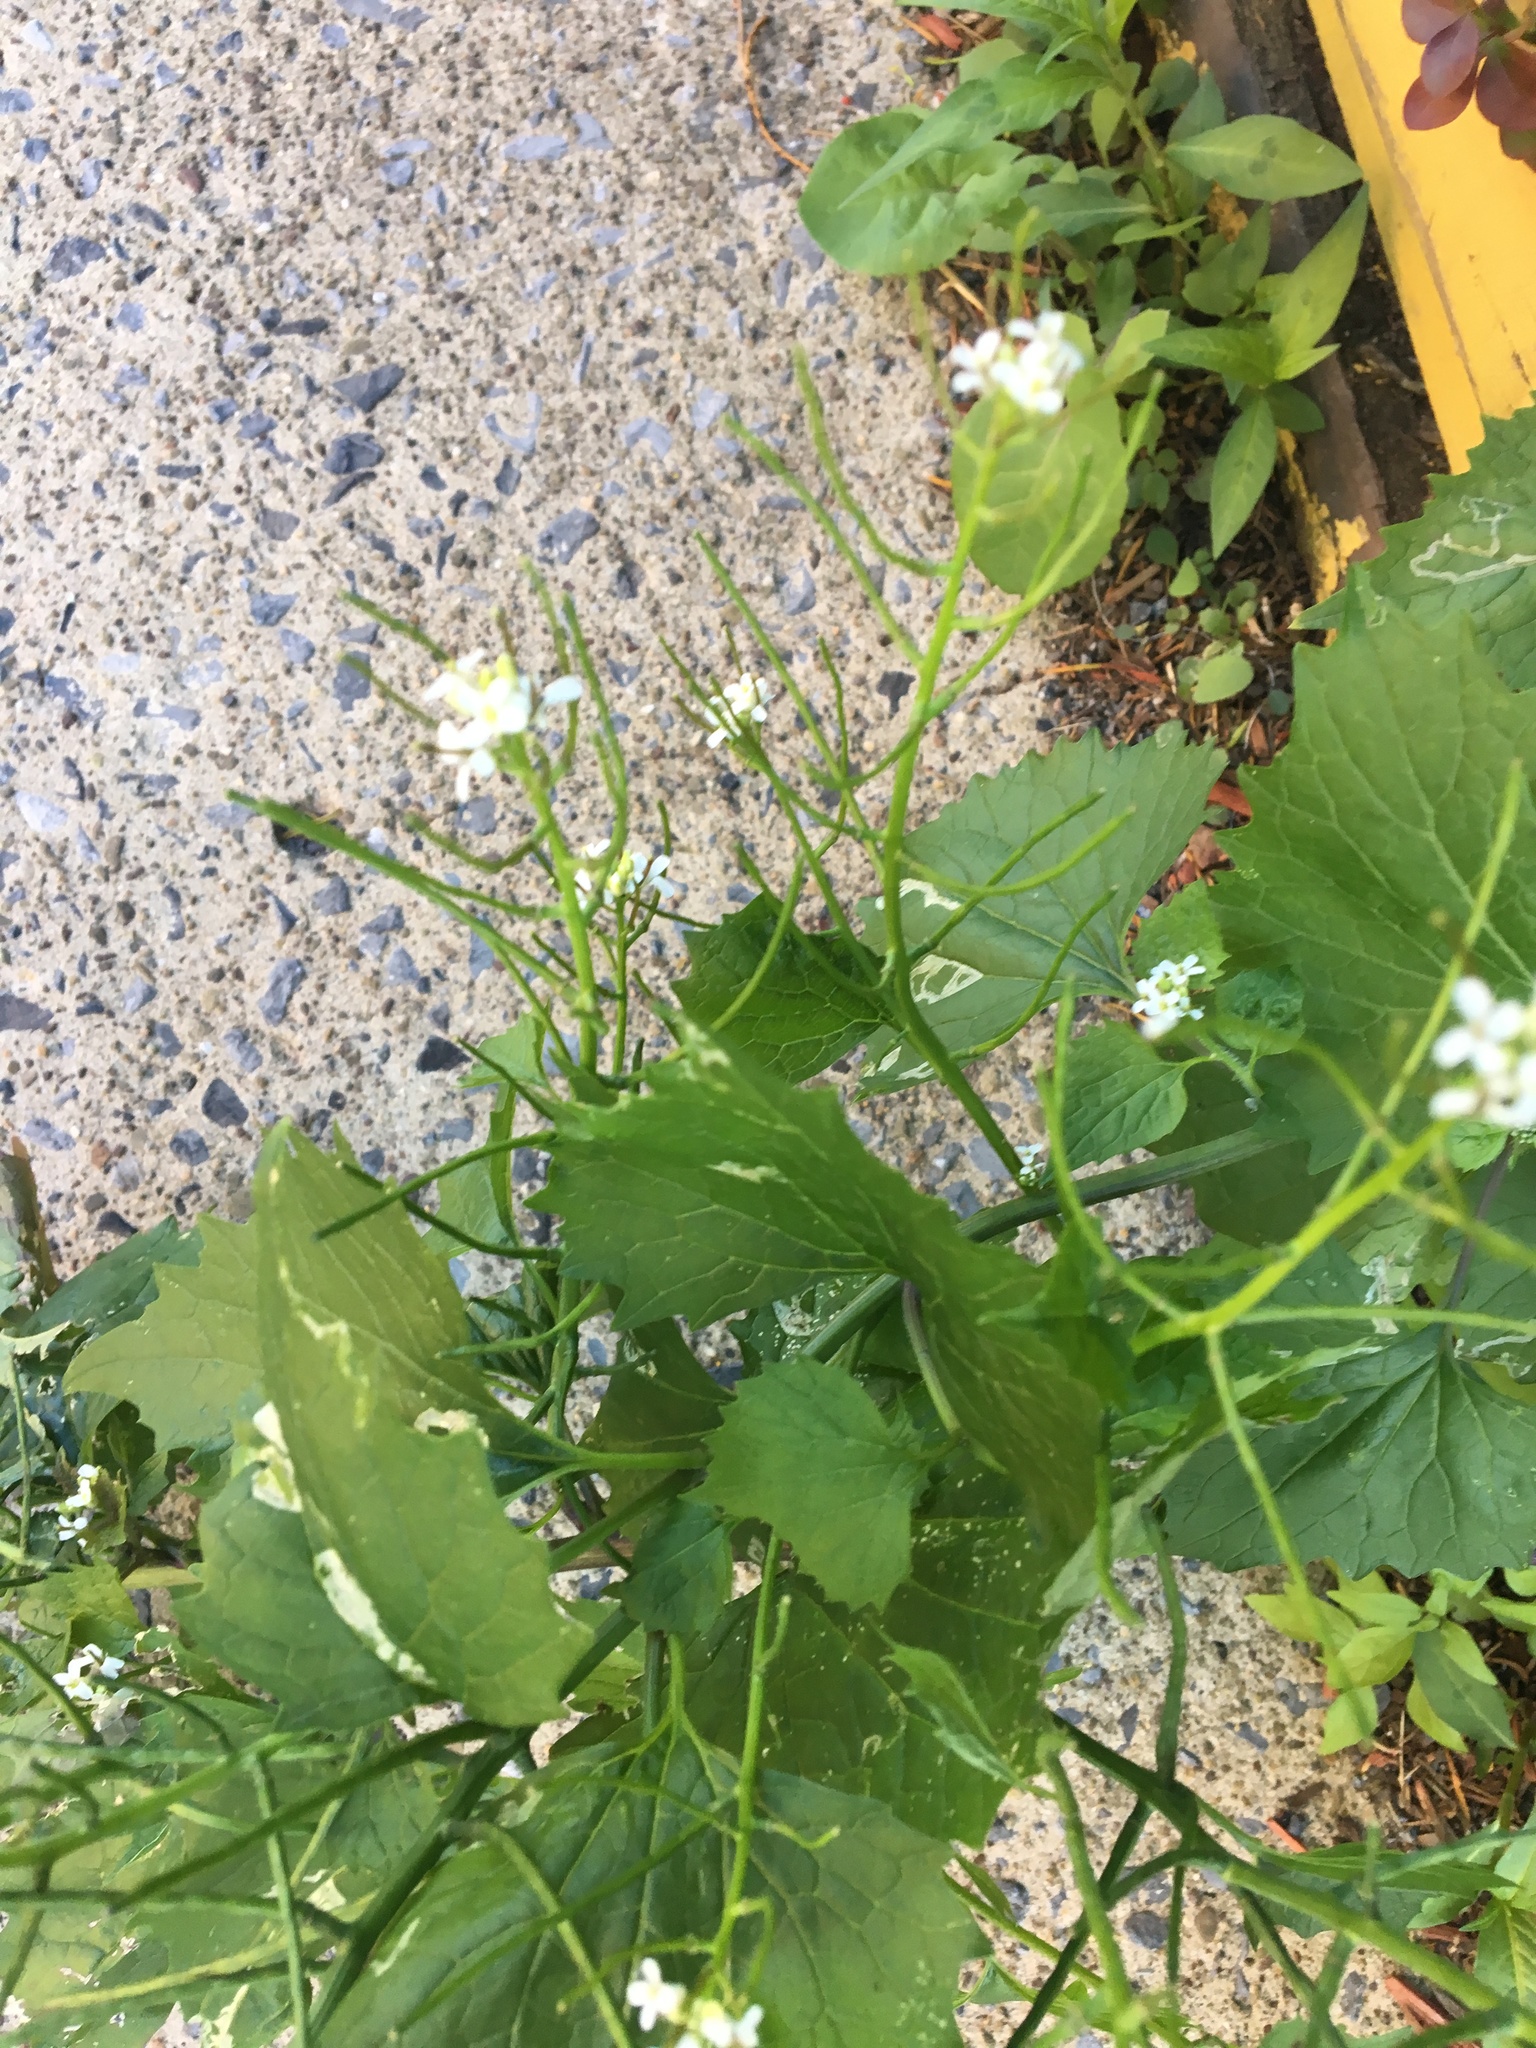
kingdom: Plantae
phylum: Tracheophyta
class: Magnoliopsida
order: Brassicales
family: Brassicaceae
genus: Alliaria
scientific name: Alliaria petiolata
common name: Garlic mustard
